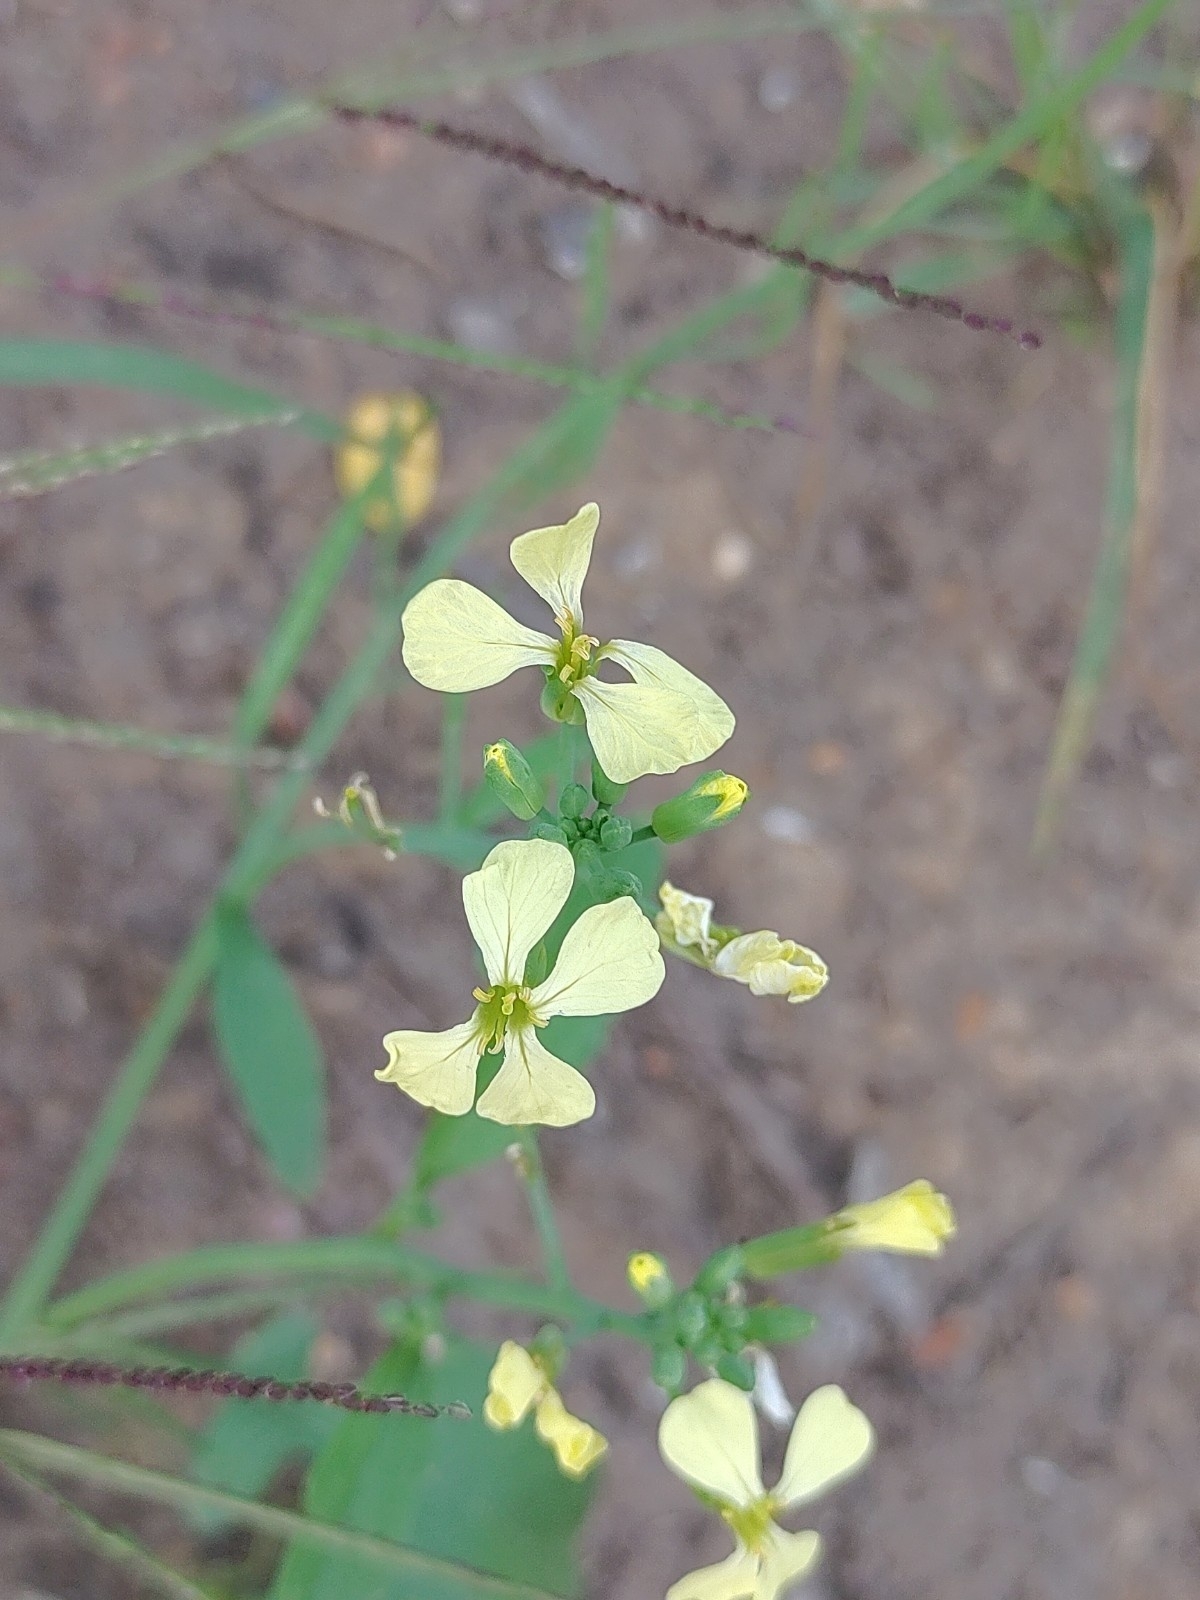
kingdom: Plantae
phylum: Tracheophyta
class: Magnoliopsida
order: Brassicales
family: Brassicaceae
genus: Raphanus
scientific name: Raphanus raphanistrum
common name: Wild radish
